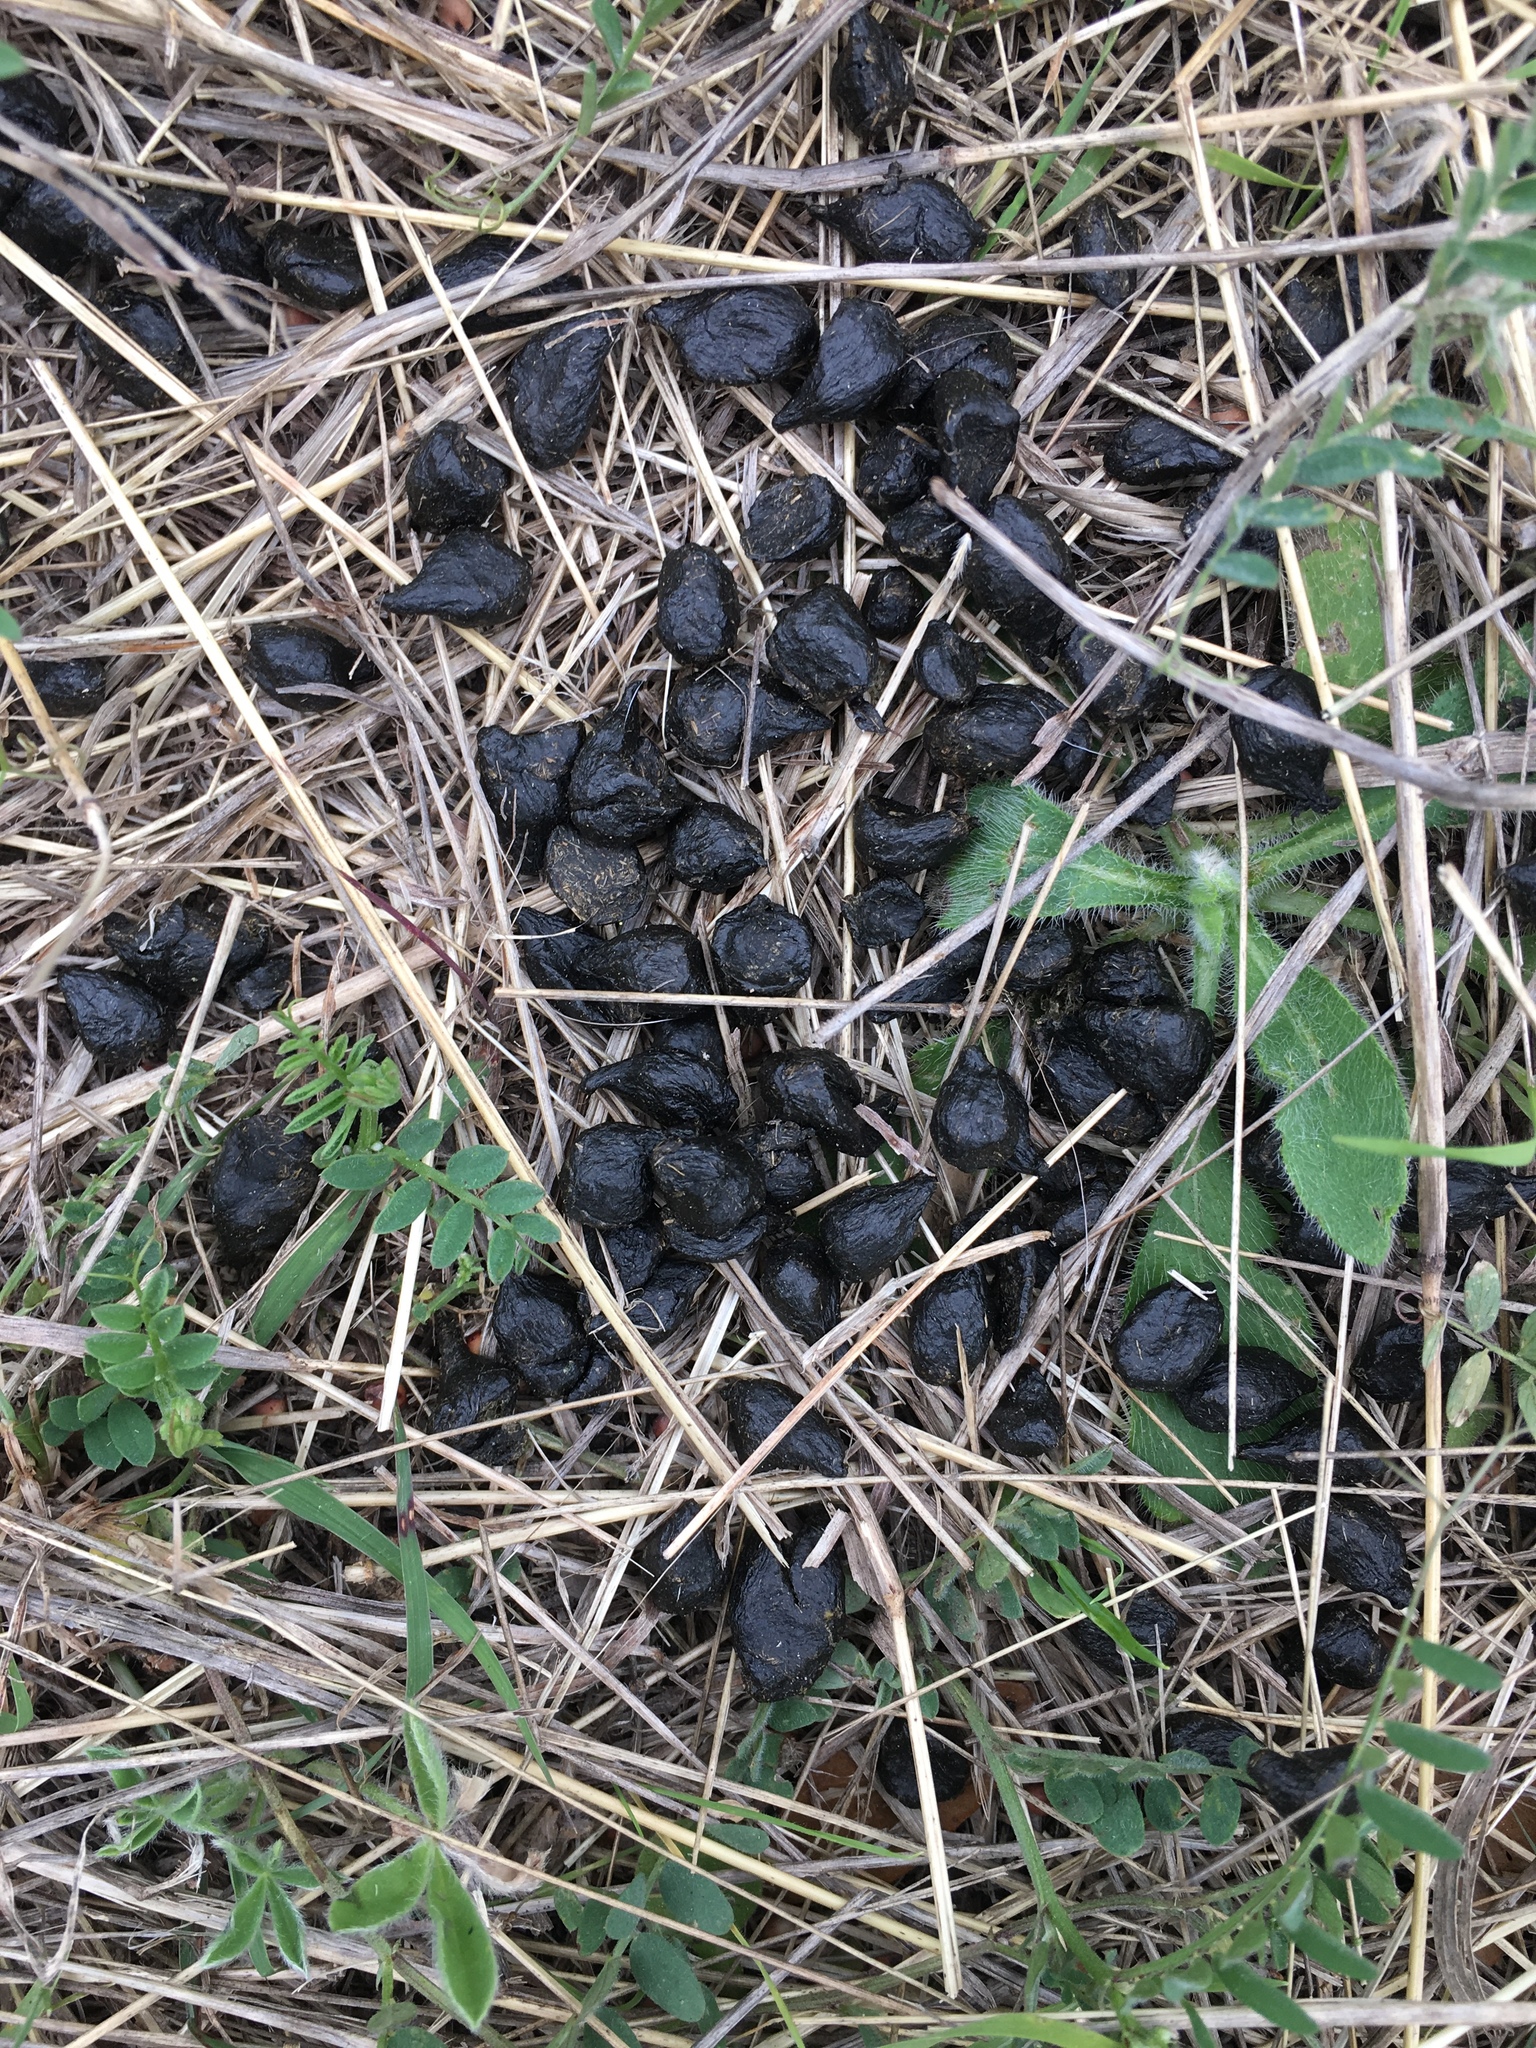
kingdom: Animalia
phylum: Chordata
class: Mammalia
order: Artiodactyla
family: Cervidae
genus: Odocoileus
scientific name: Odocoileus virginianus
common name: White-tailed deer
